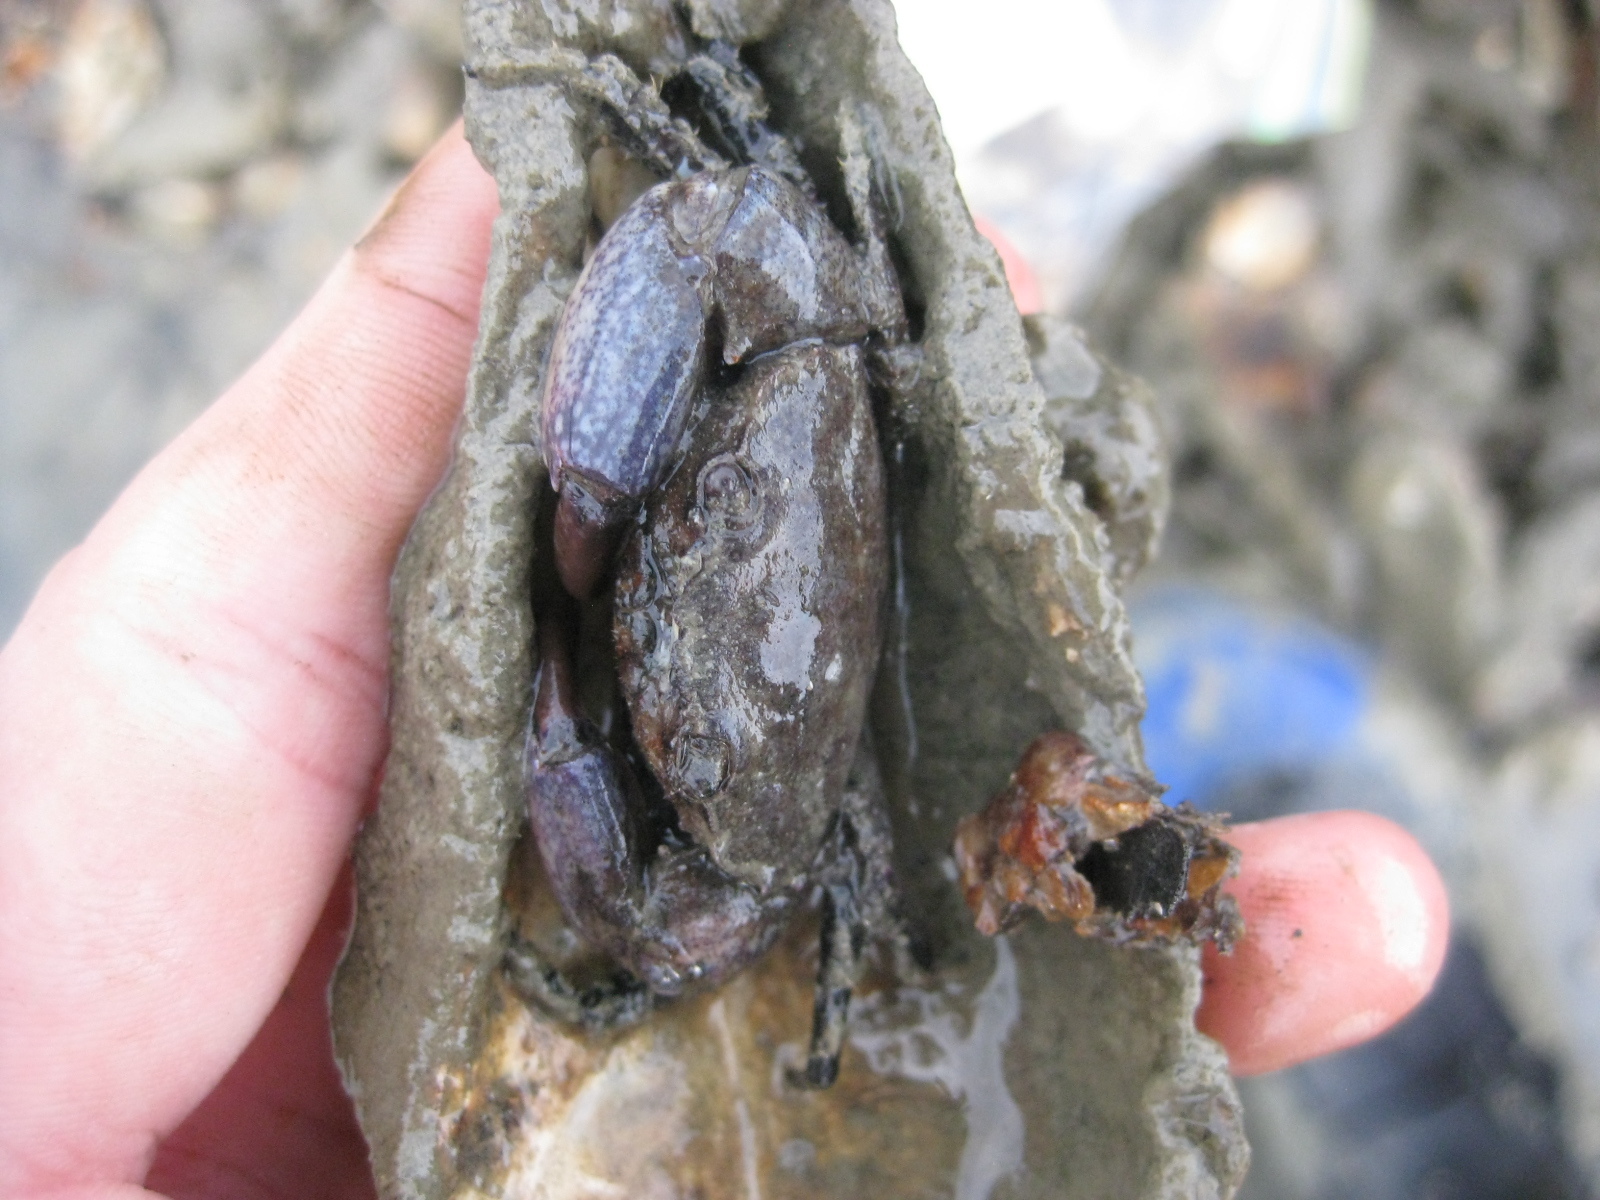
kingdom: Animalia
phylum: Arthropoda
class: Malacostraca
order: Decapoda
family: Pilumnidae
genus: Pilumnopeus
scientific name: Pilumnopeus serratifrons
